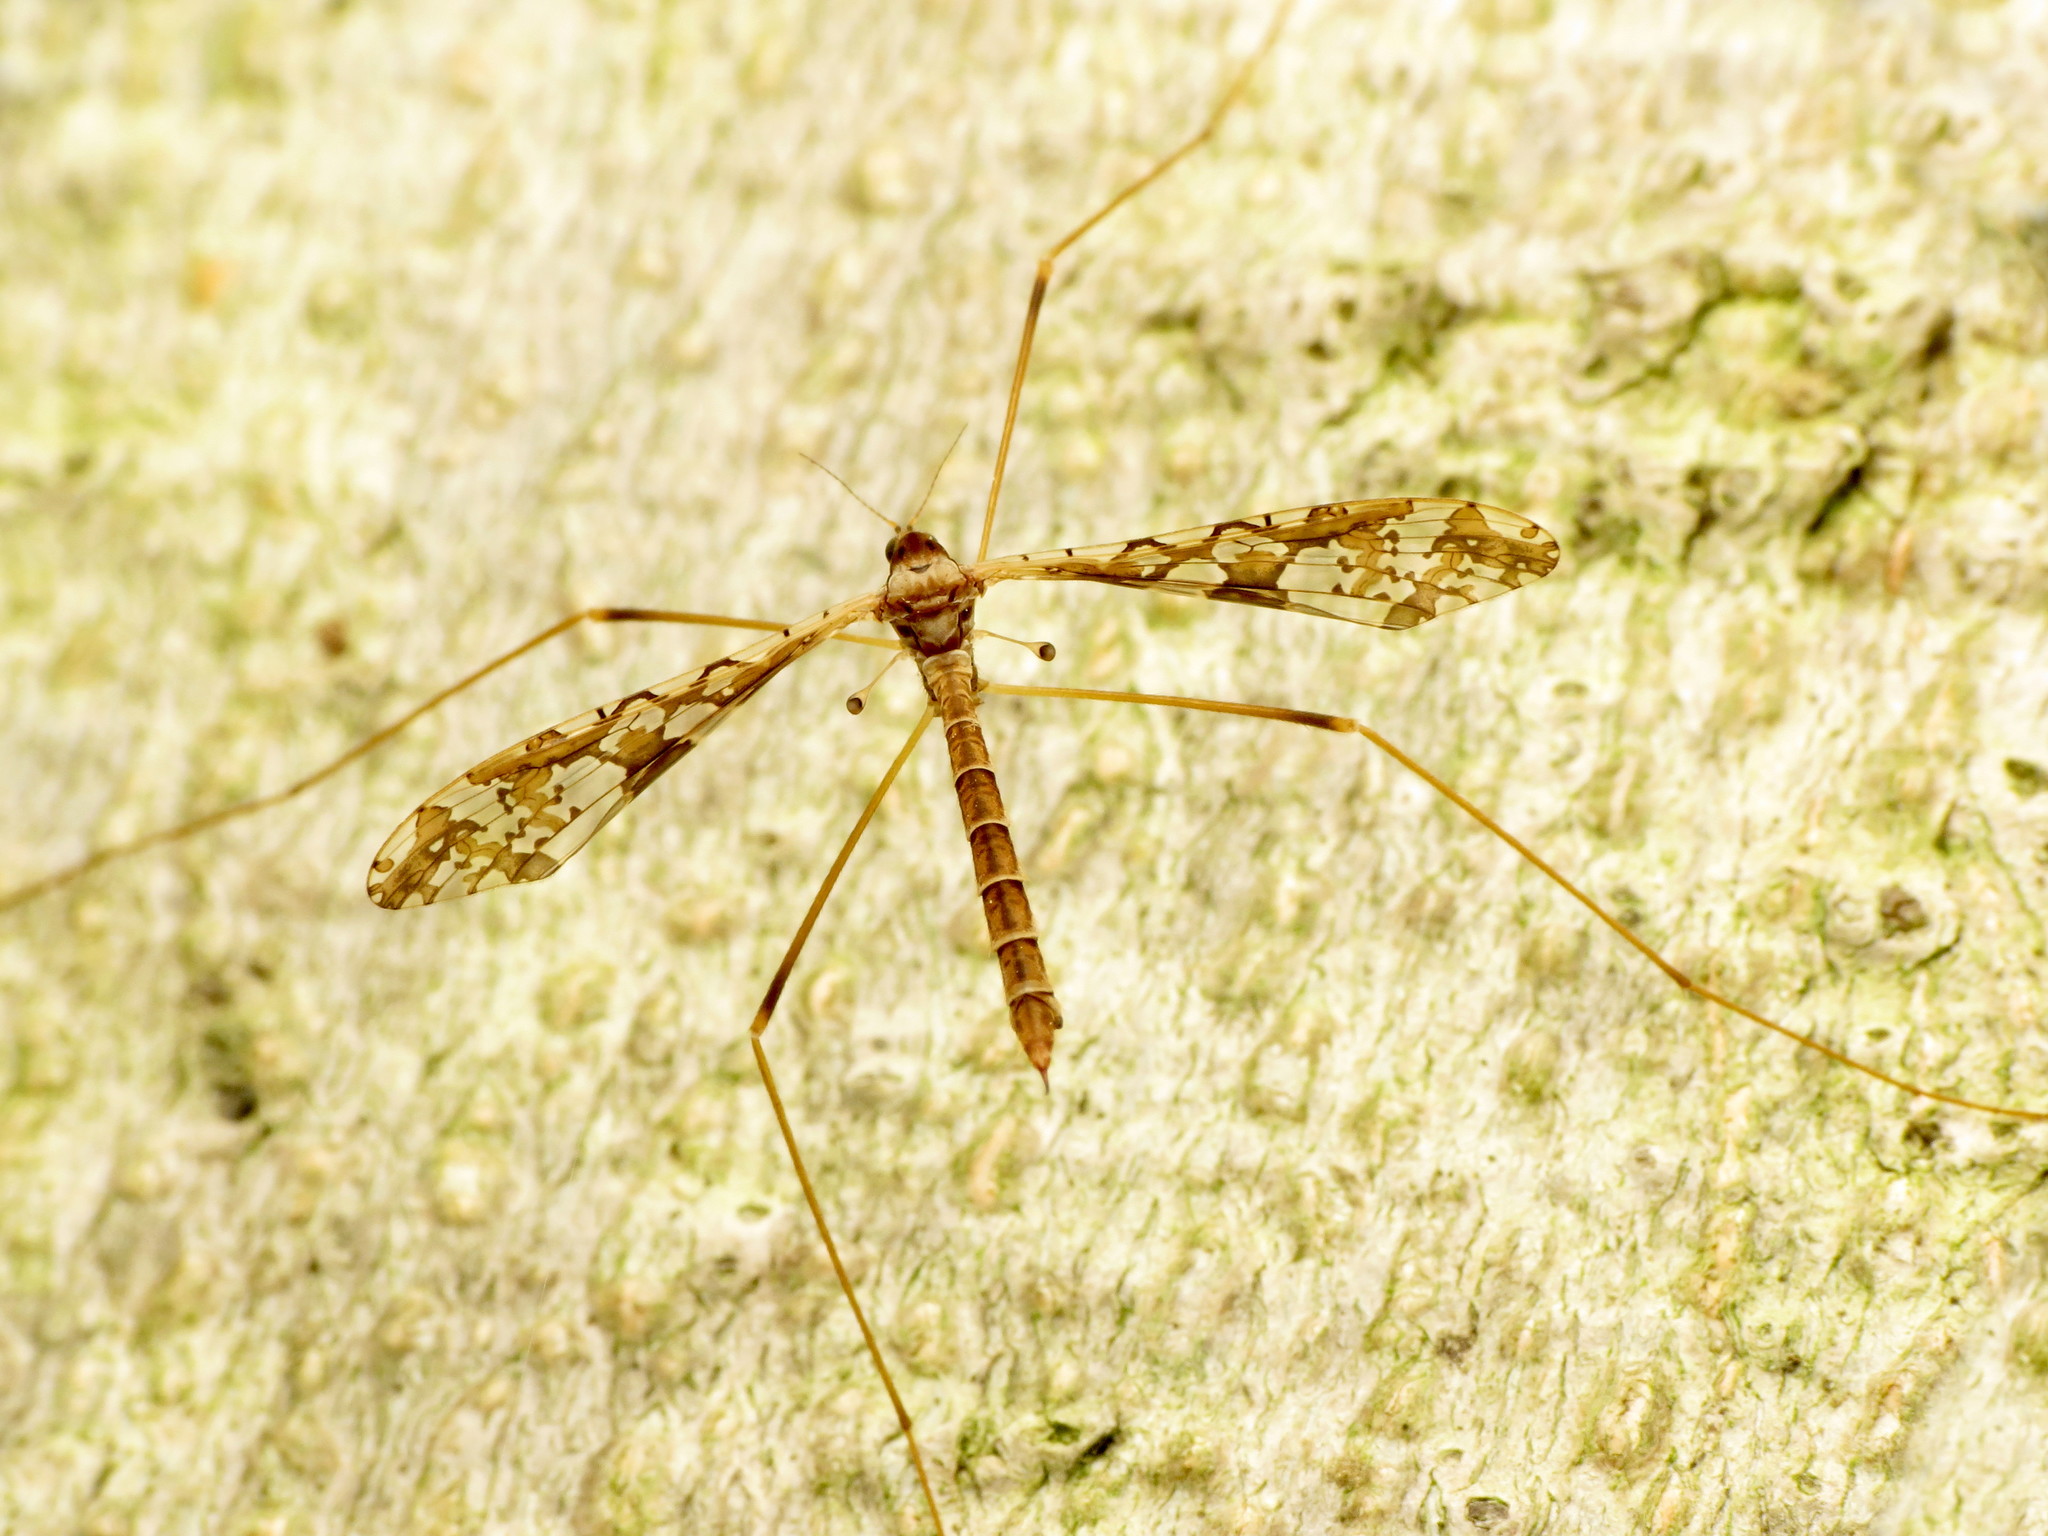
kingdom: Animalia
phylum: Arthropoda
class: Insecta
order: Diptera
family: Limoniidae
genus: Epiphragma
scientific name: Epiphragma solatrix
